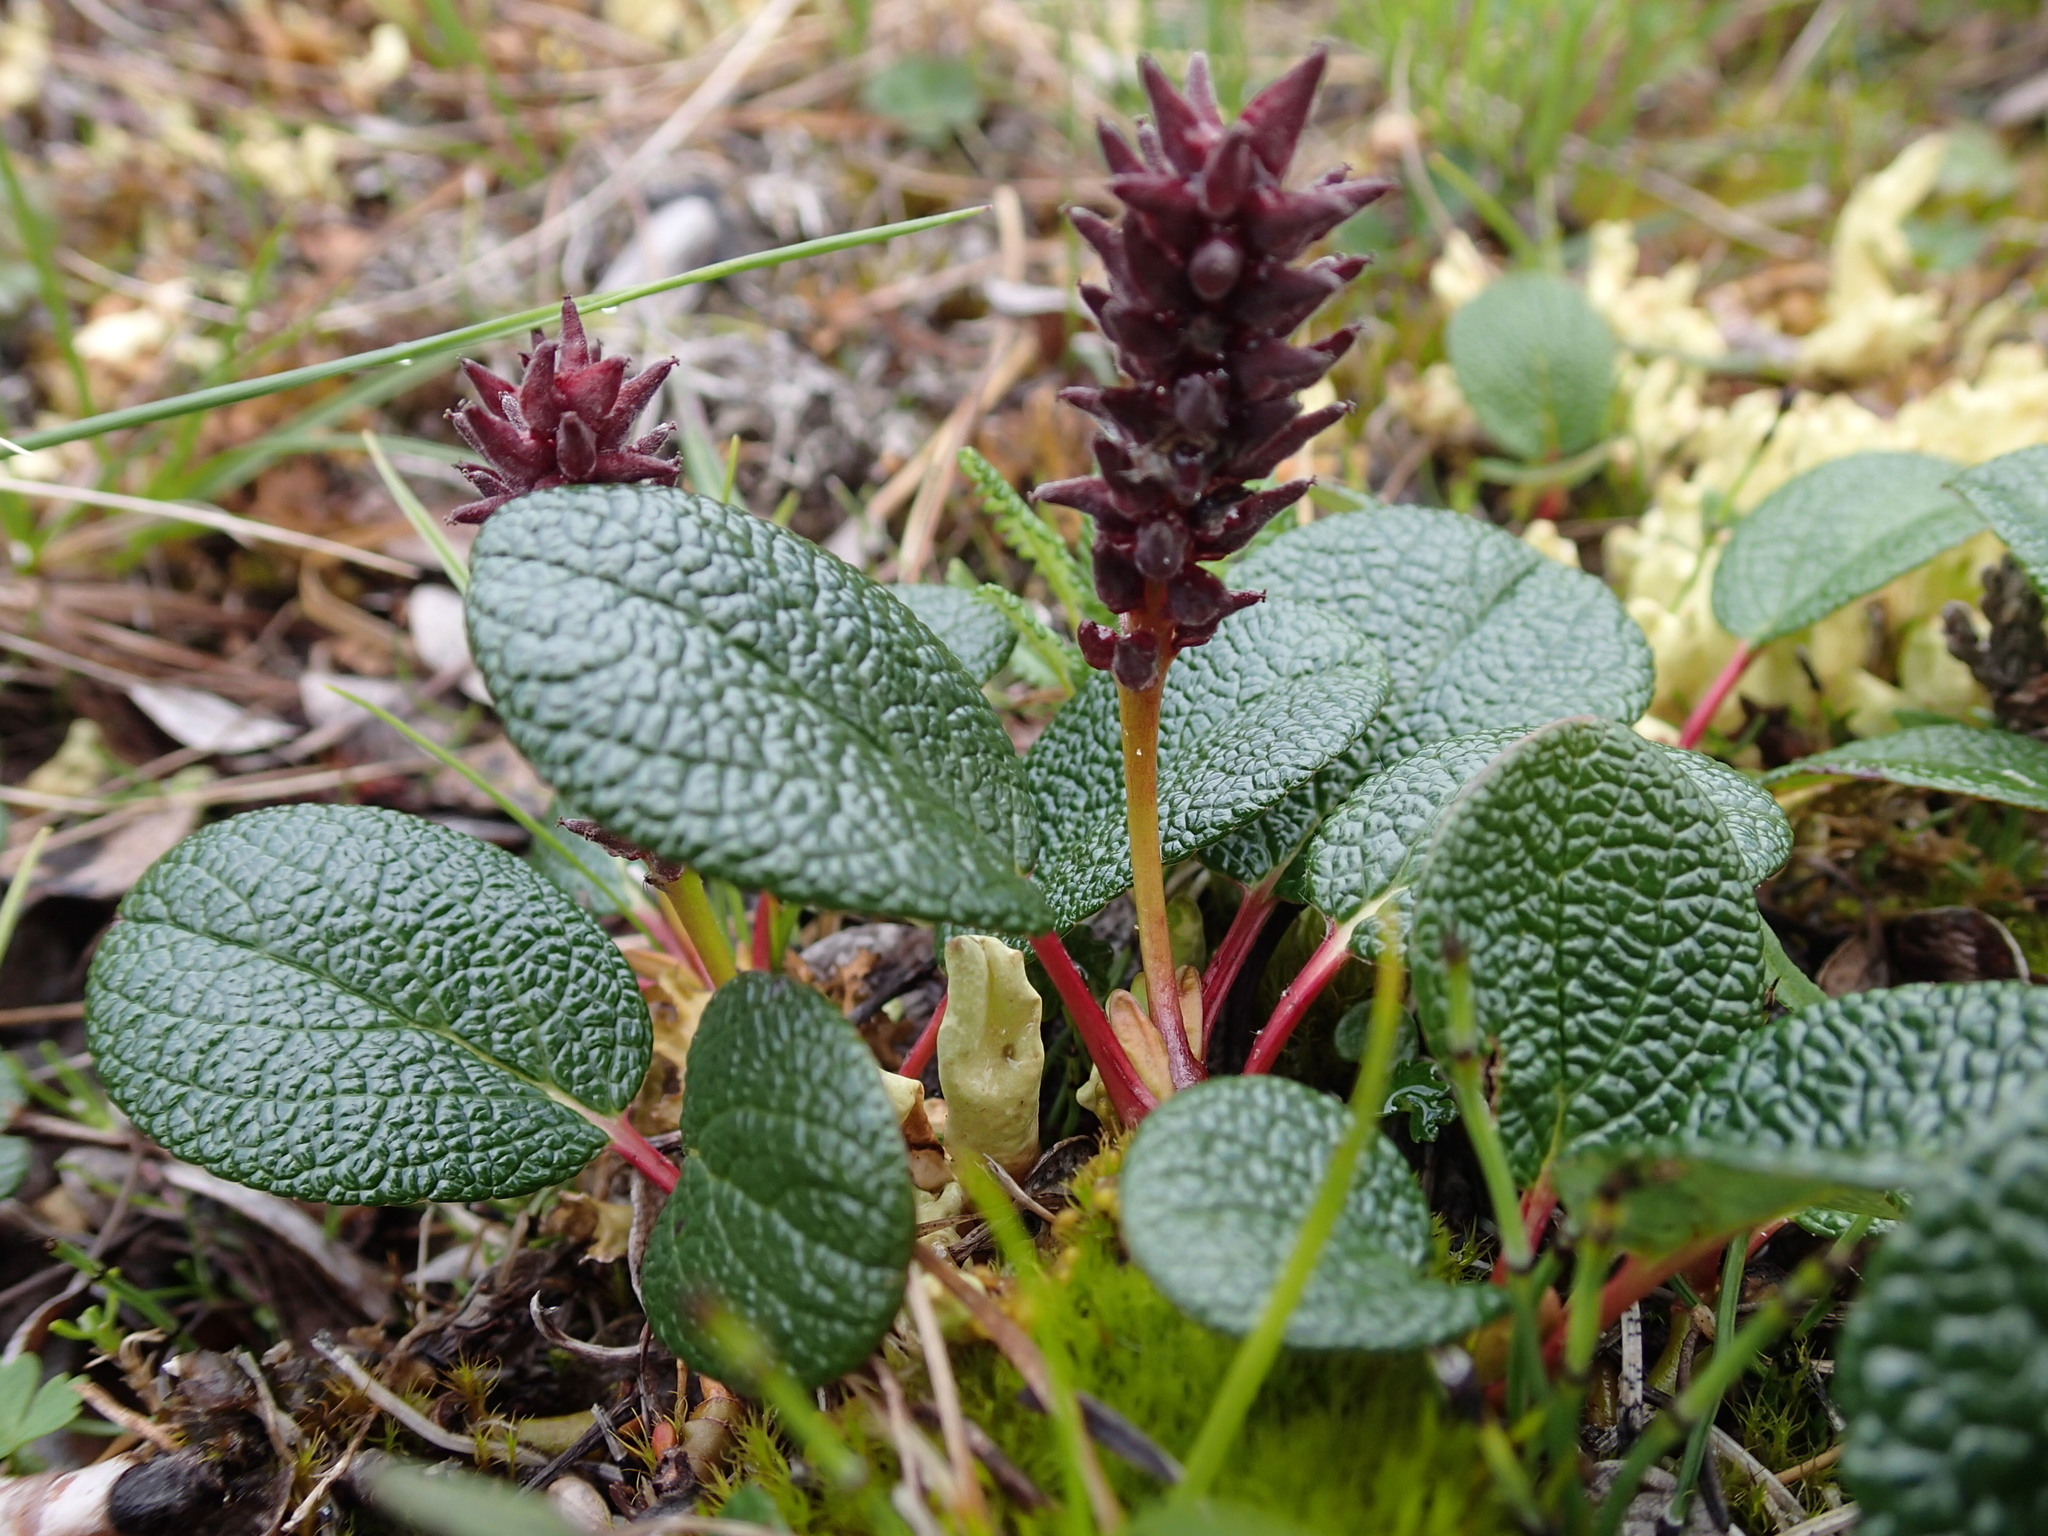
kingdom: Plantae
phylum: Tracheophyta
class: Magnoliopsida
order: Malpighiales
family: Salicaceae
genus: Salix
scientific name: Salix reticulata
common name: Net-leaved willow
